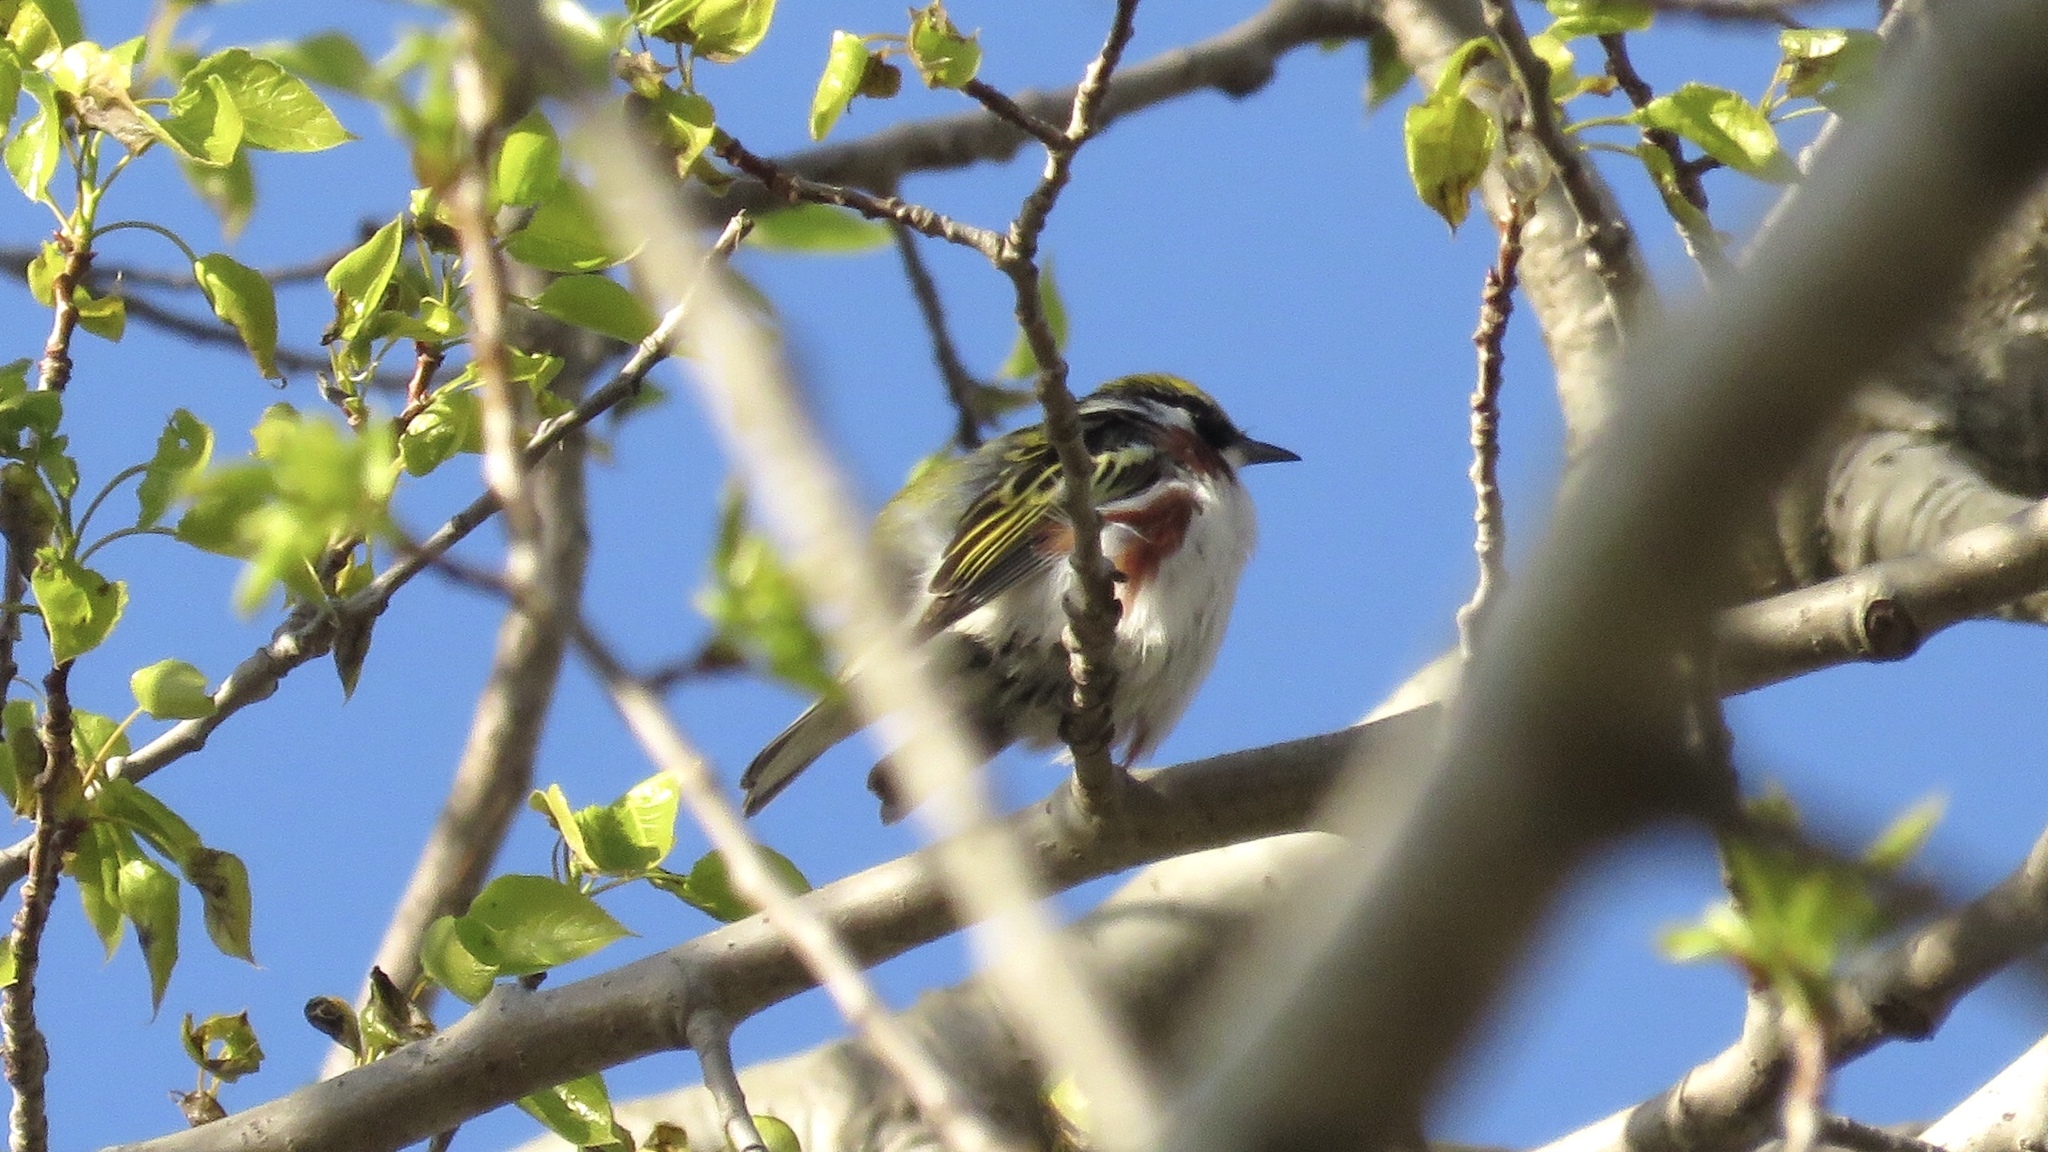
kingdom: Animalia
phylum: Chordata
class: Aves
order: Passeriformes
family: Parulidae
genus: Setophaga
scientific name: Setophaga pensylvanica
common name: Chestnut-sided warbler
